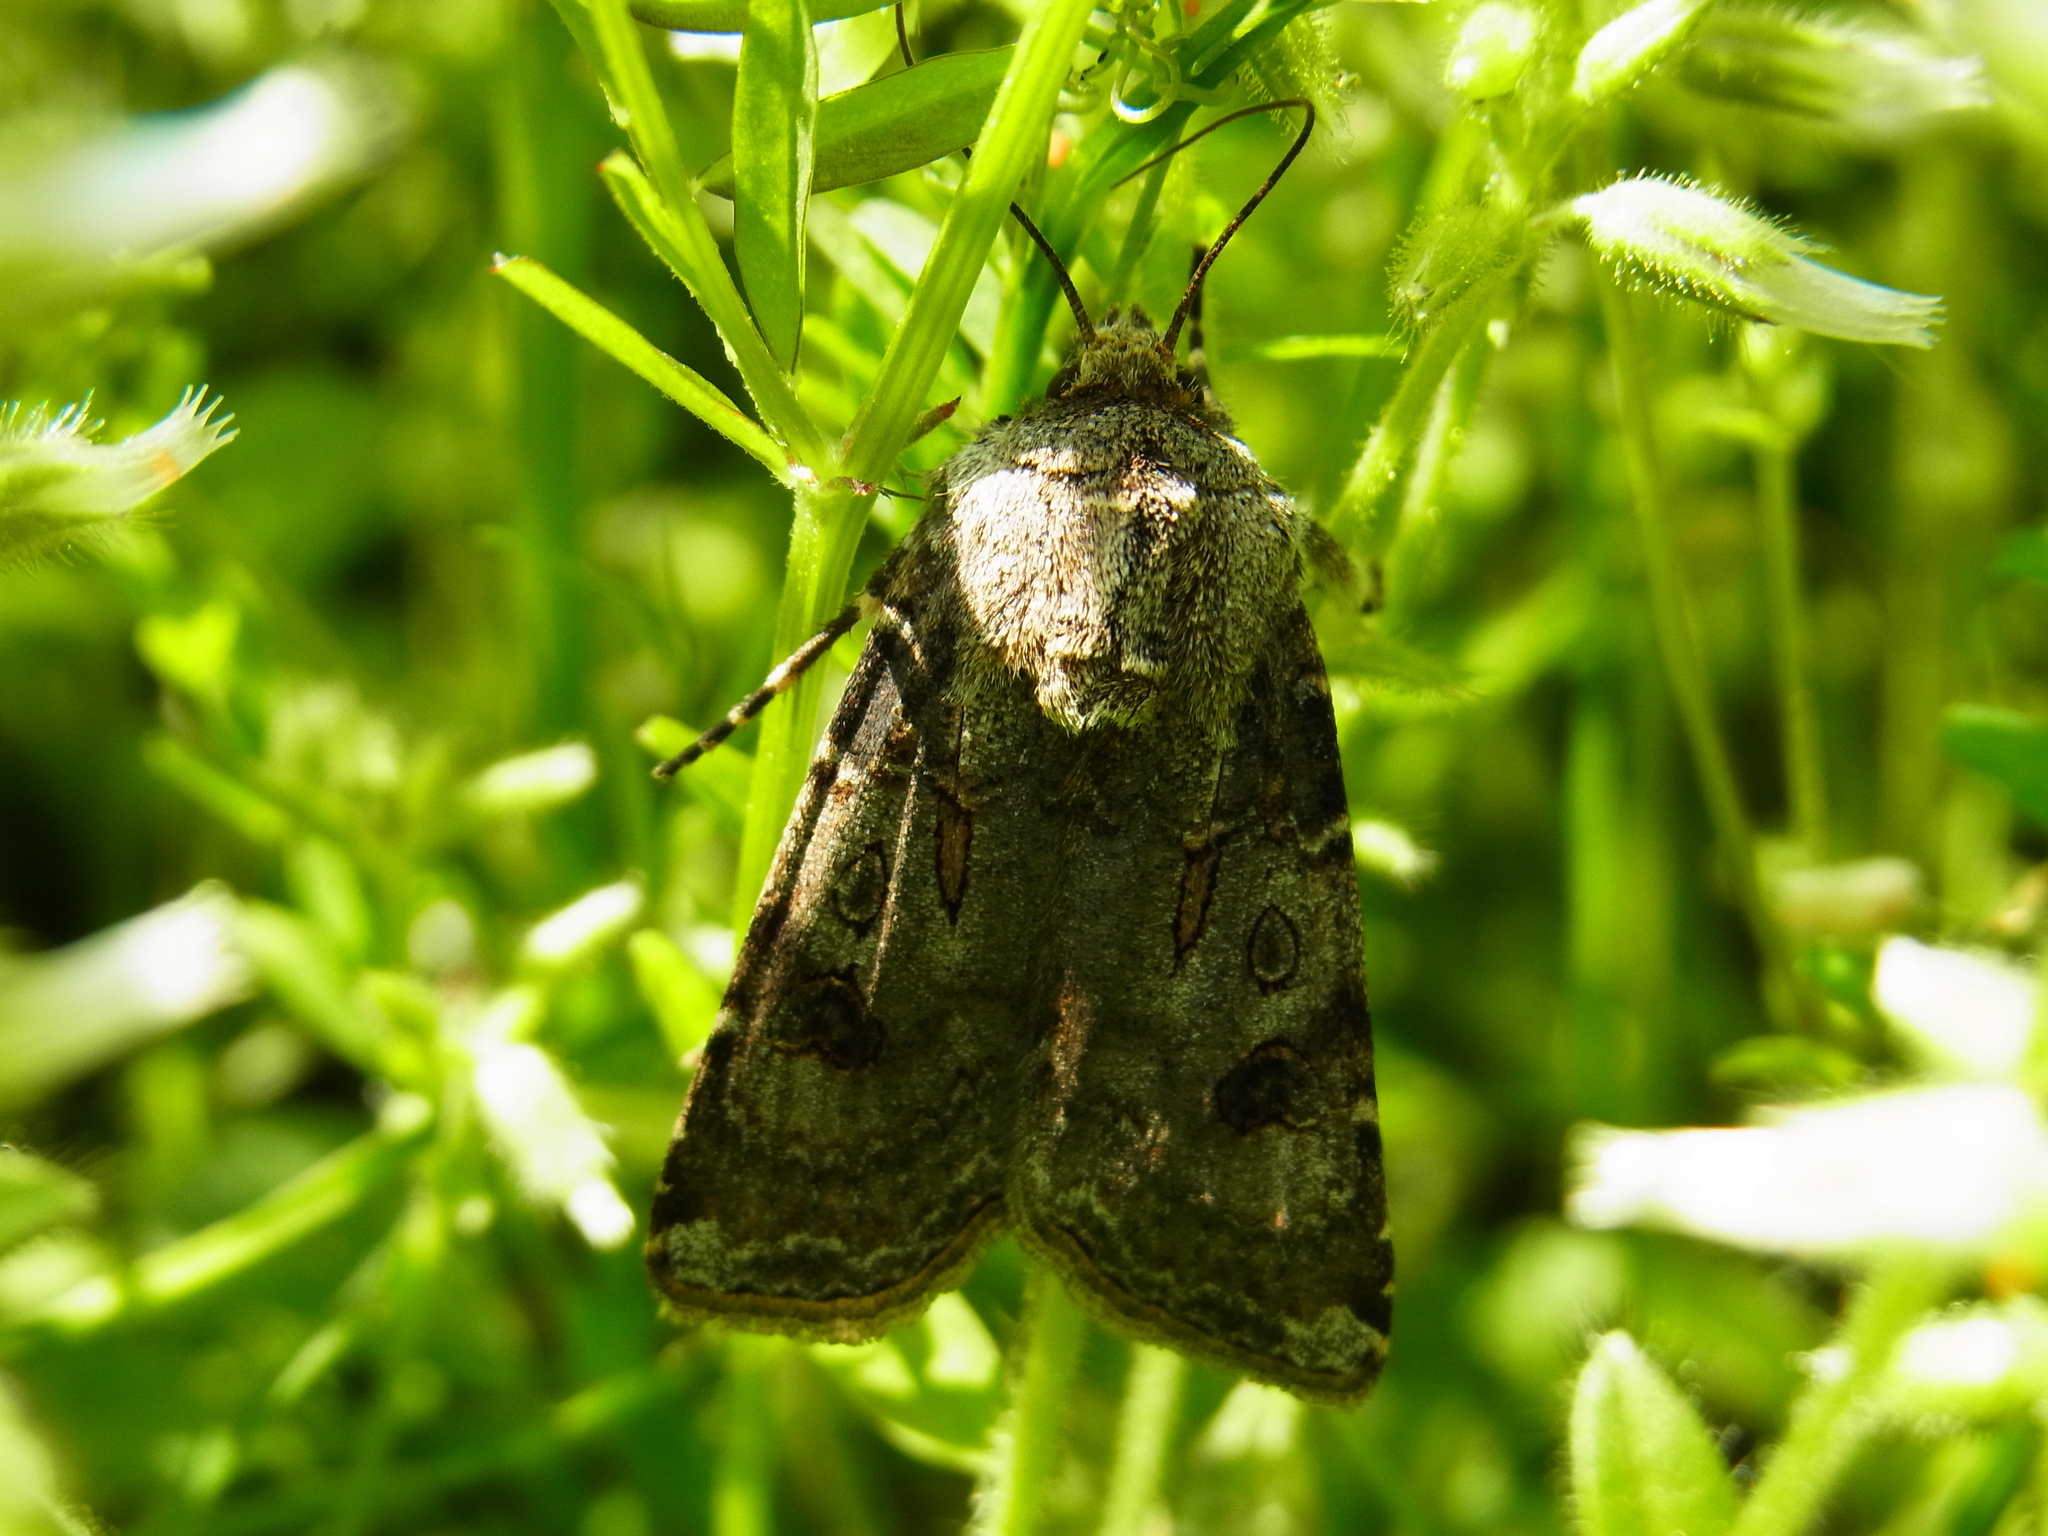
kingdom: Animalia
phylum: Arthropoda
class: Insecta
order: Lepidoptera
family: Noctuidae
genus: Agrotis
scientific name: Agrotis segetum
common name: Turnip moth
